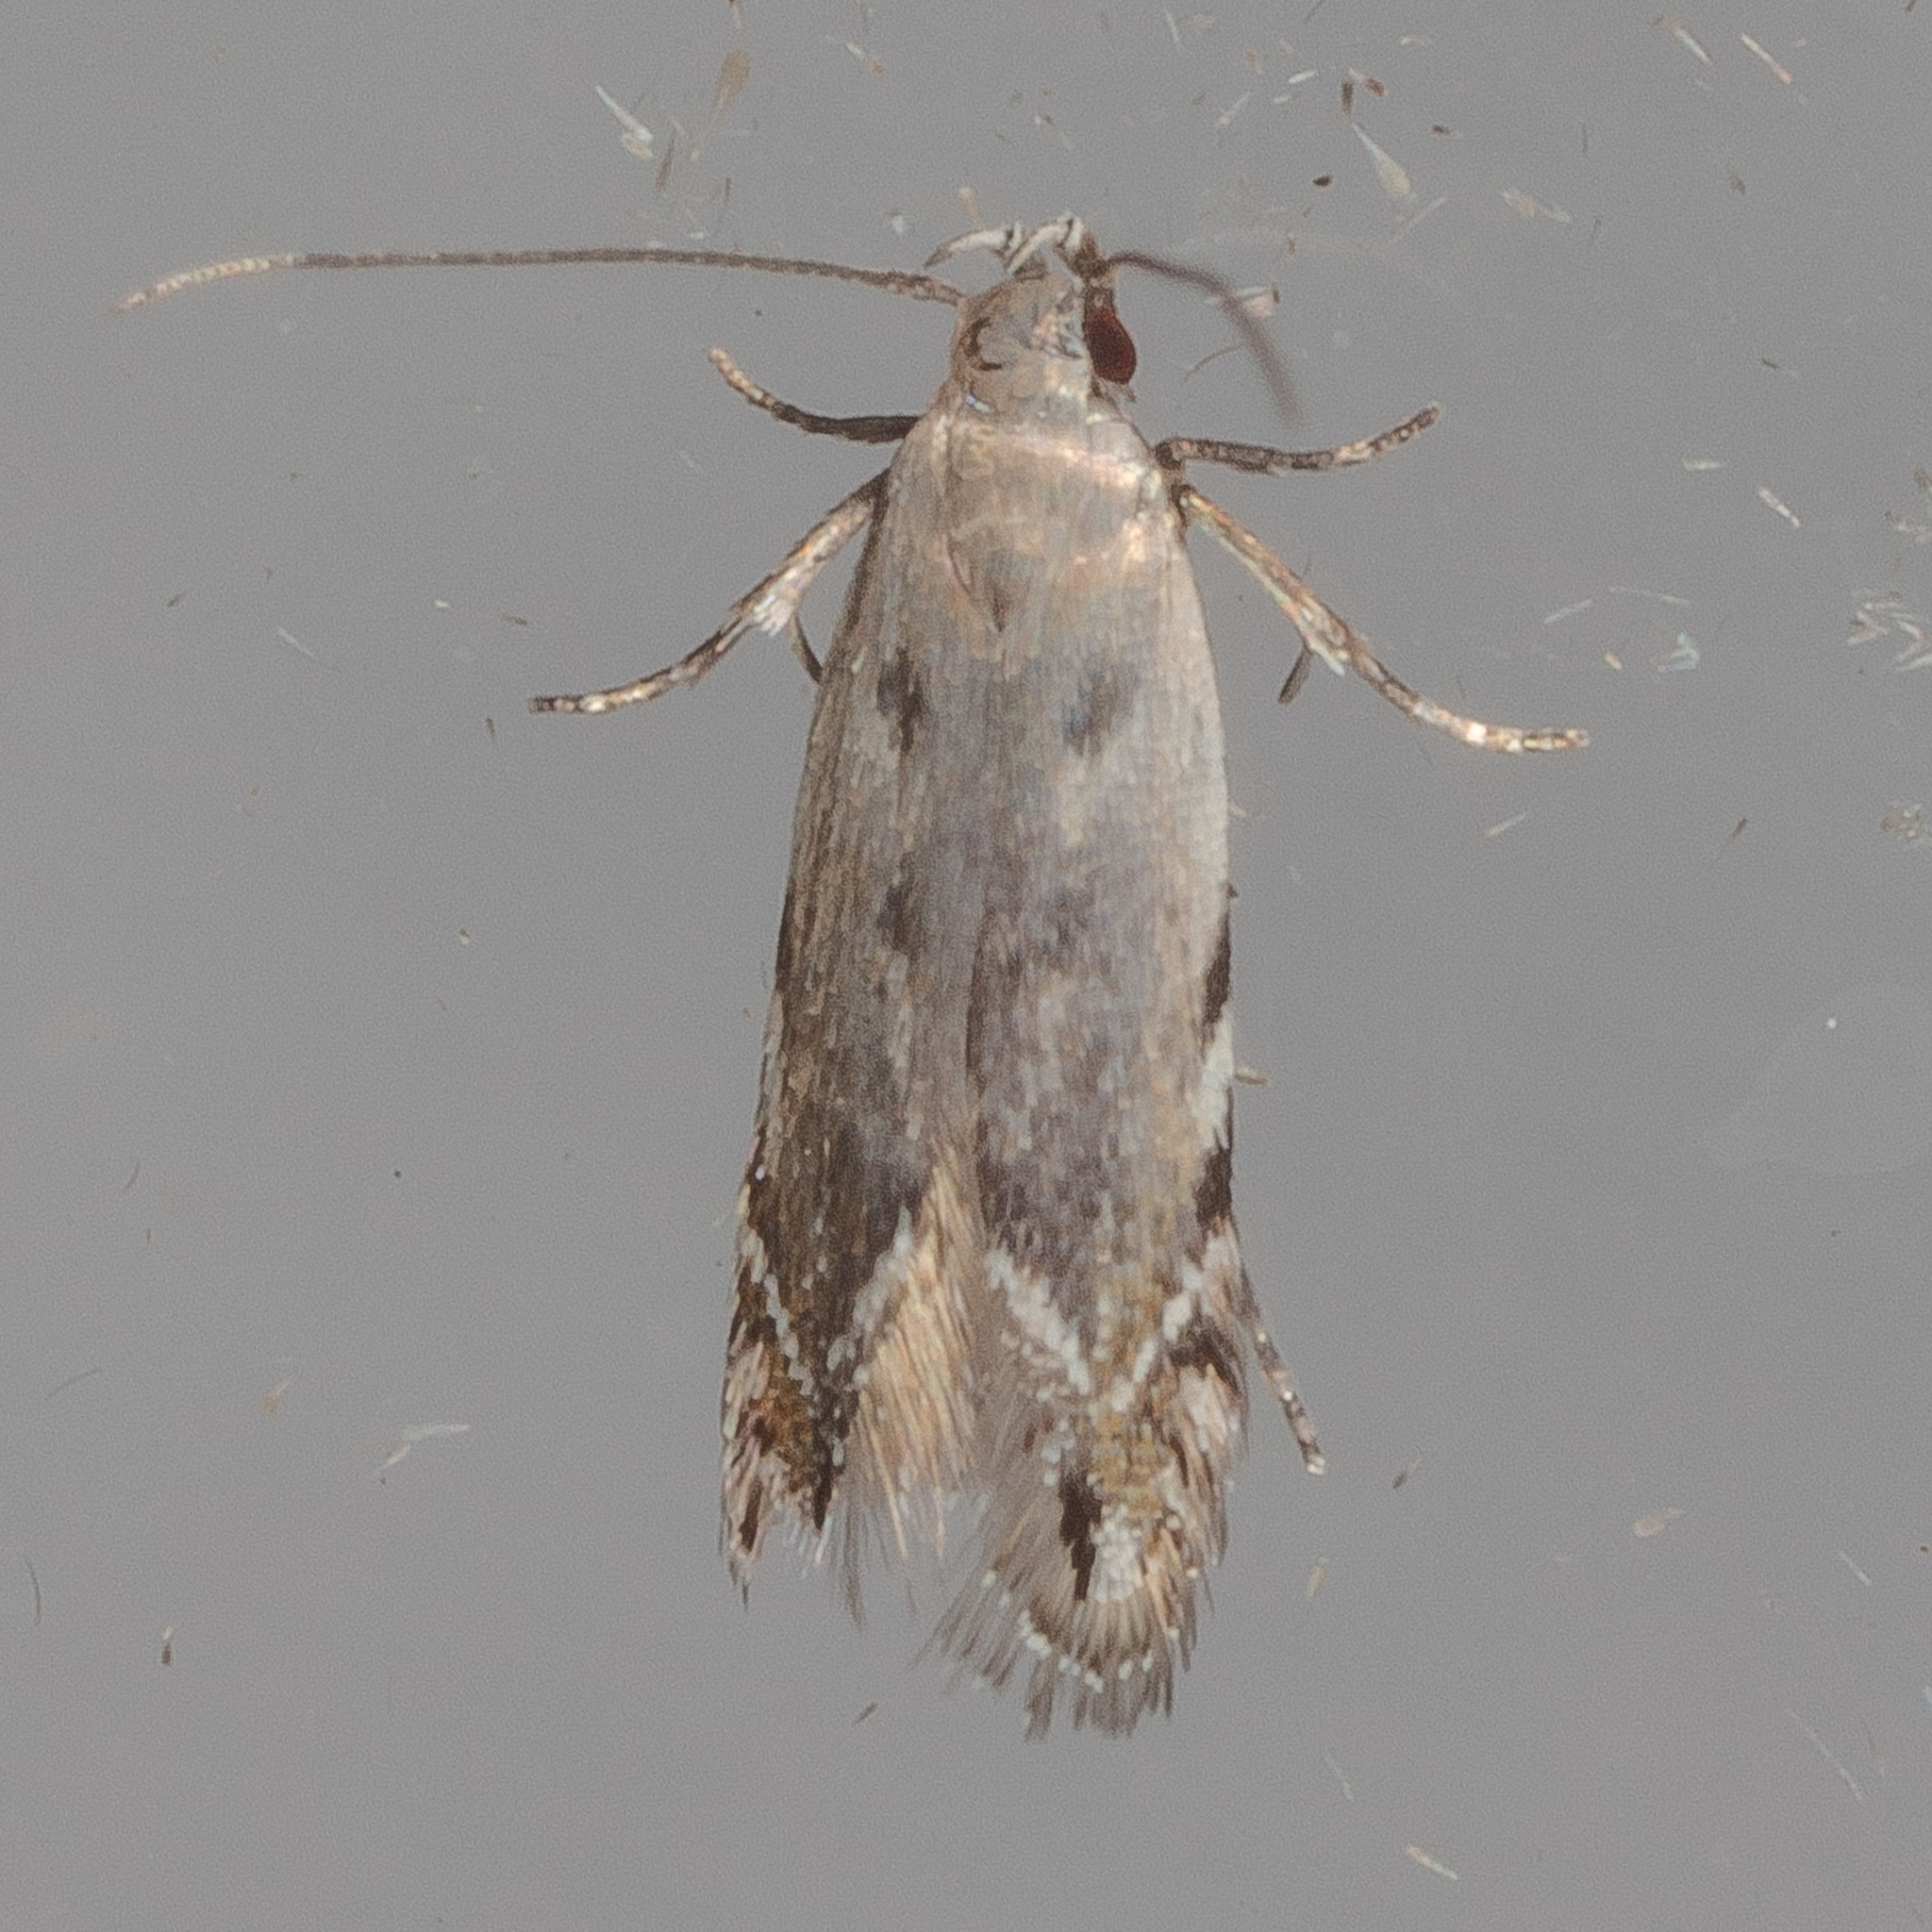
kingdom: Animalia
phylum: Arthropoda
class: Insecta
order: Lepidoptera
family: Gelechiidae
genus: Battaristis
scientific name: Battaristis concinnusella
